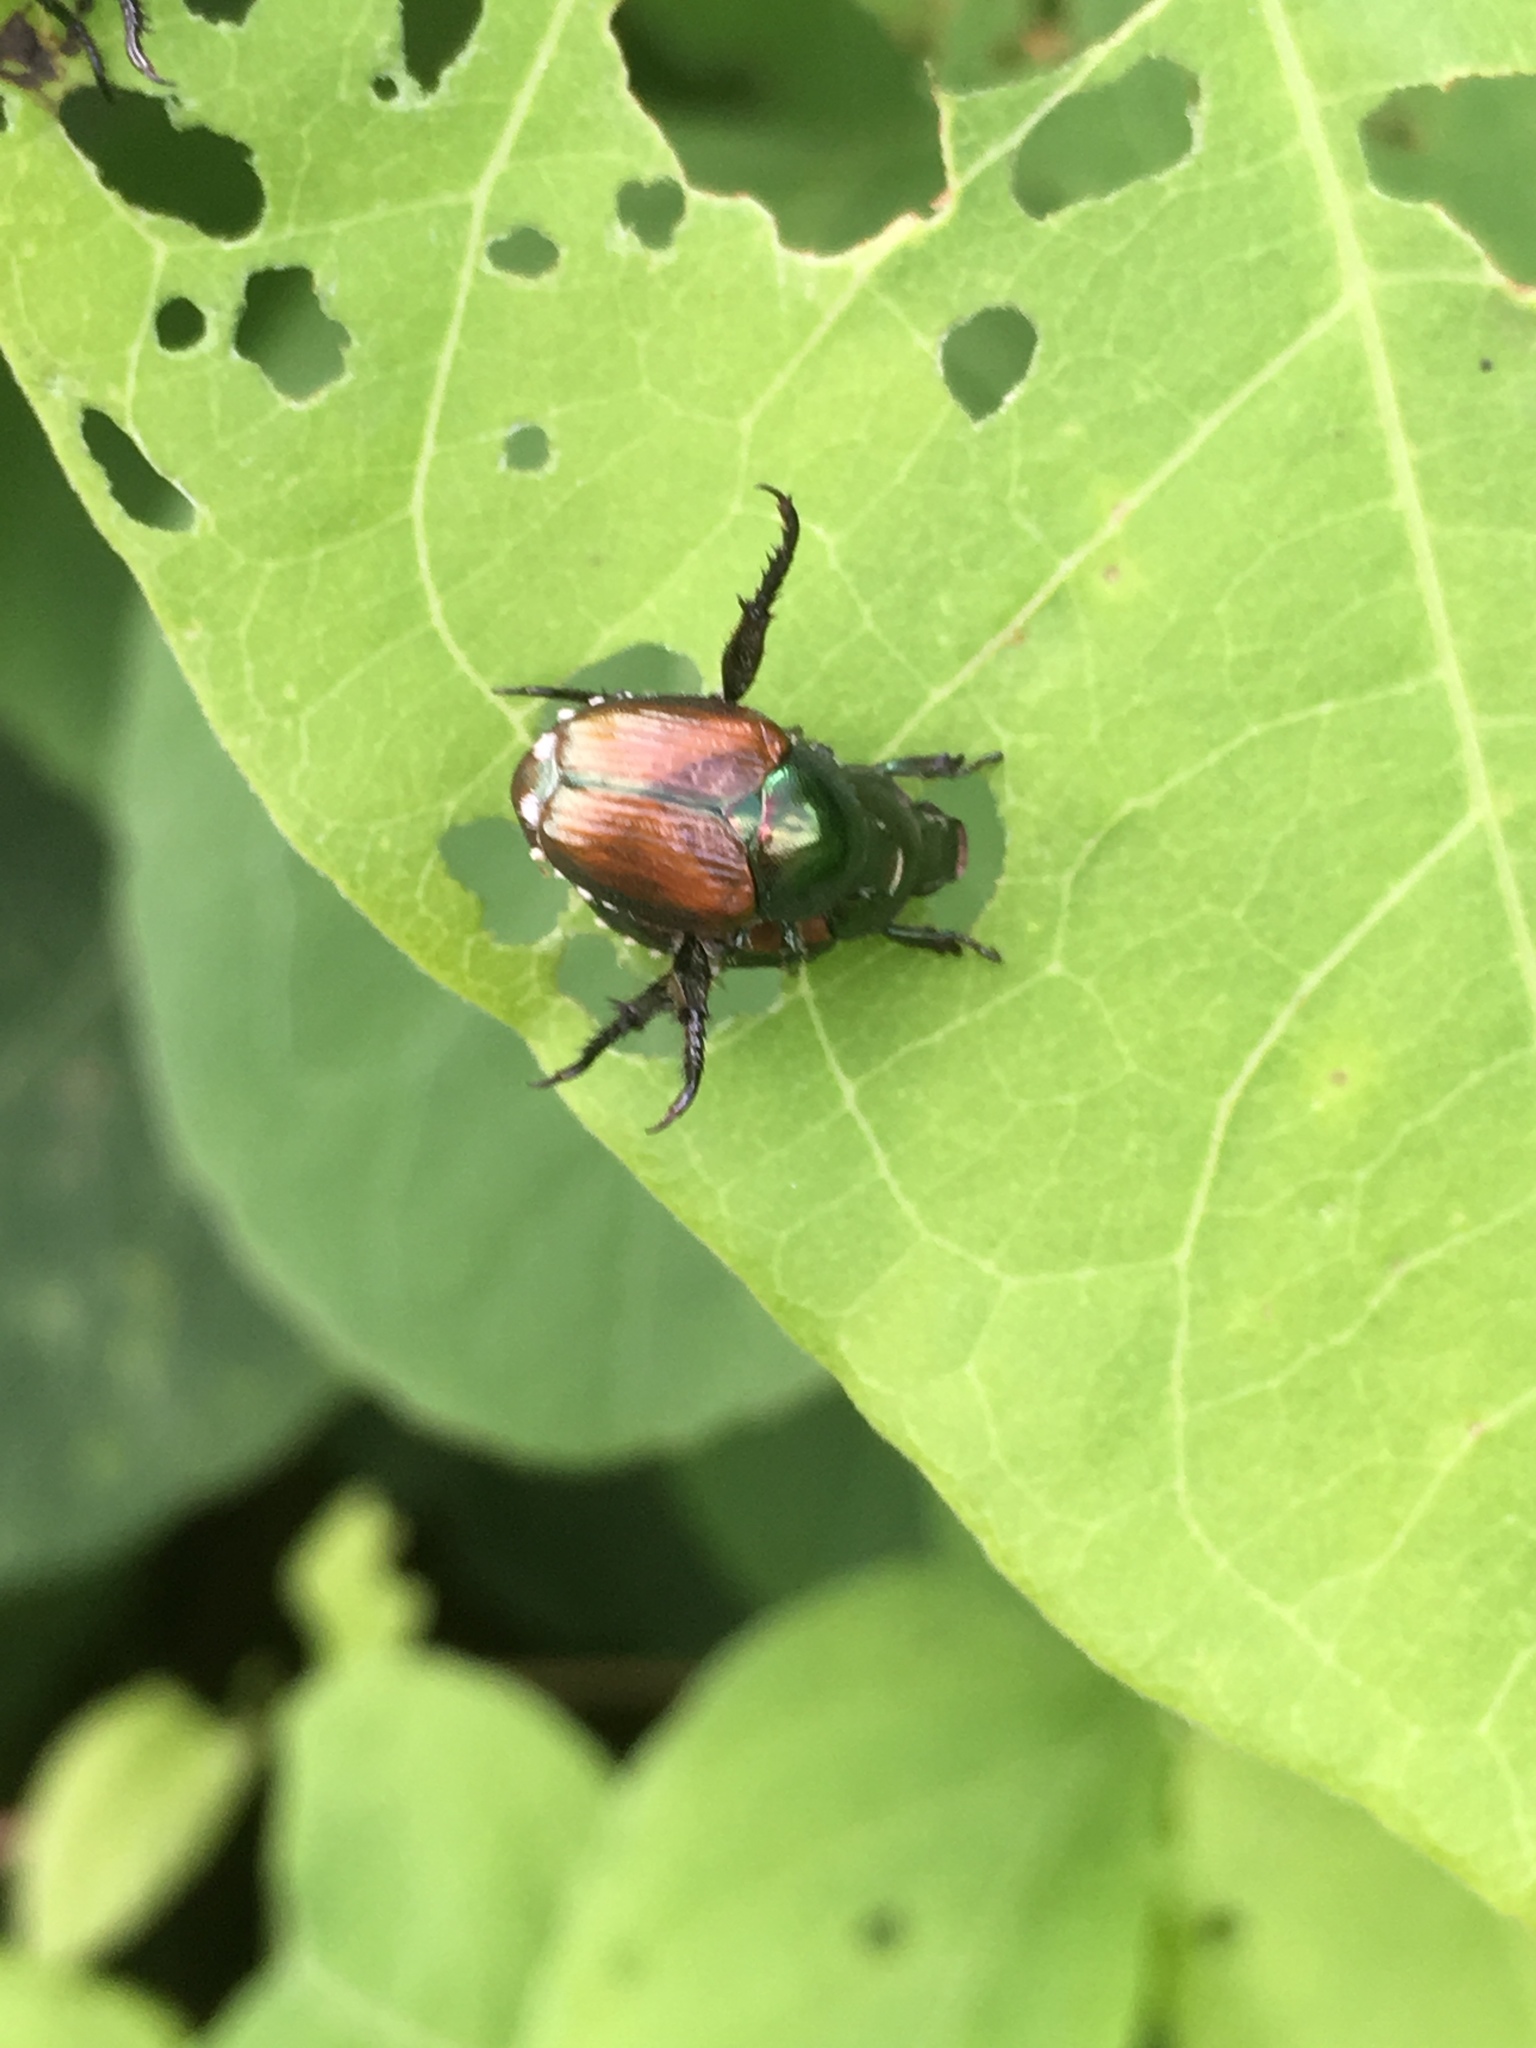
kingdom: Animalia
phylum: Arthropoda
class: Insecta
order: Coleoptera
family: Scarabaeidae
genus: Popillia
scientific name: Popillia japonica
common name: Japanese beetle
